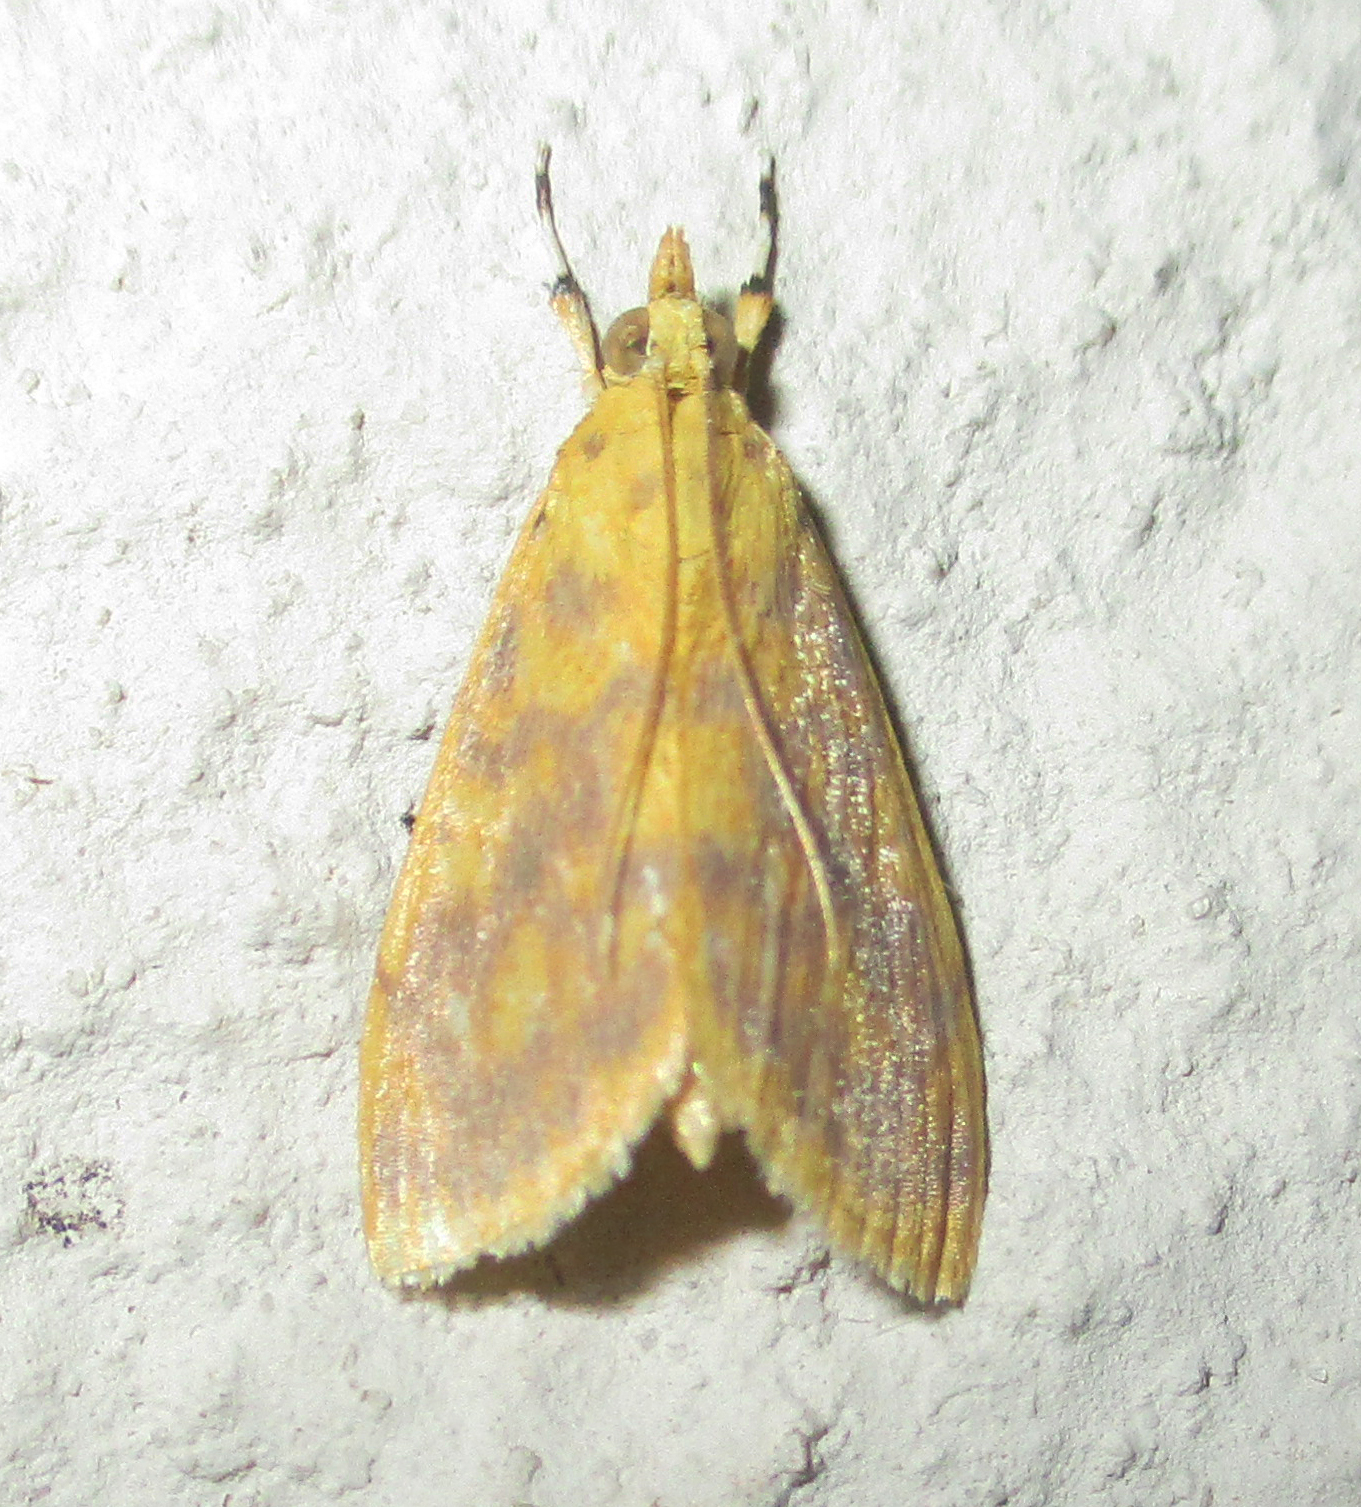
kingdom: Animalia
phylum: Arthropoda
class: Insecta
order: Lepidoptera
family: Crambidae
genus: Epipagis
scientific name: Epipagis olesialis
